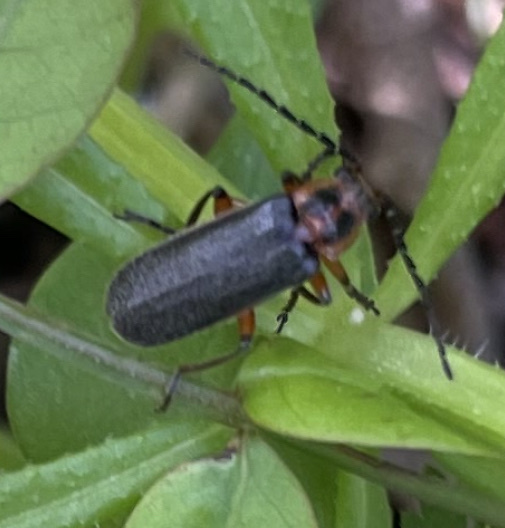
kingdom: Animalia
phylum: Arthropoda
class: Insecta
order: Coleoptera
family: Cantharidae
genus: Atalantycha
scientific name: Atalantycha bilineata
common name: Two-lined leatherwing
